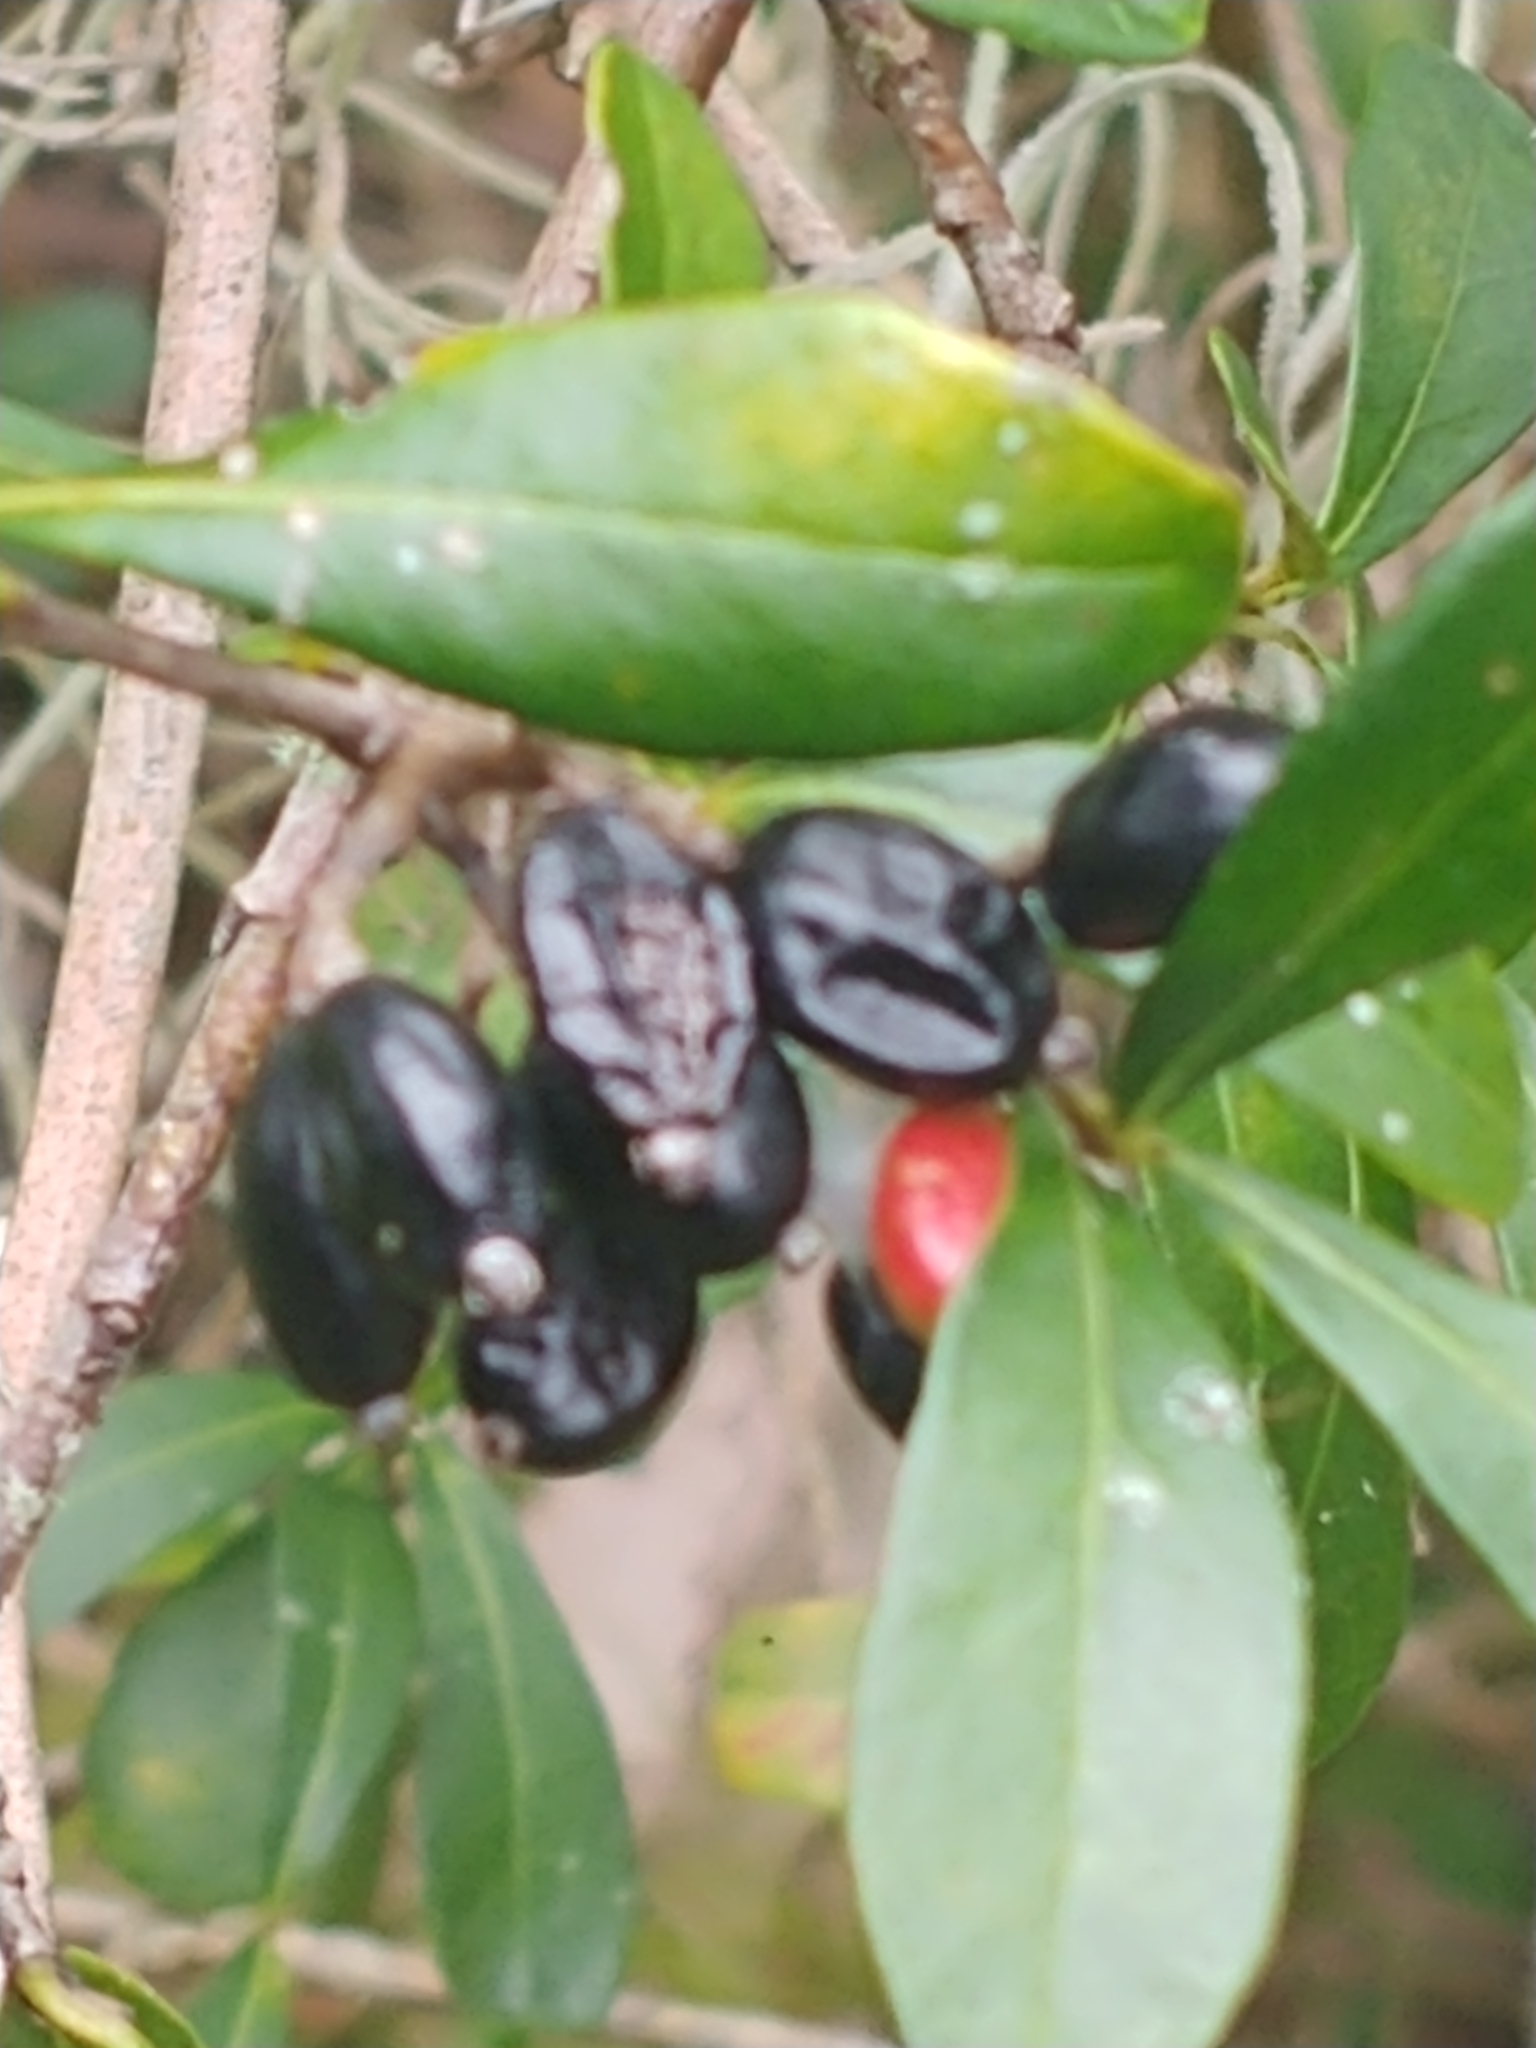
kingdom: Plantae
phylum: Tracheophyta
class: Magnoliopsida
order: Dipsacales
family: Viburnaceae
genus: Viburnum
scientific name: Viburnum obovatum
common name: Walter's viburnum
